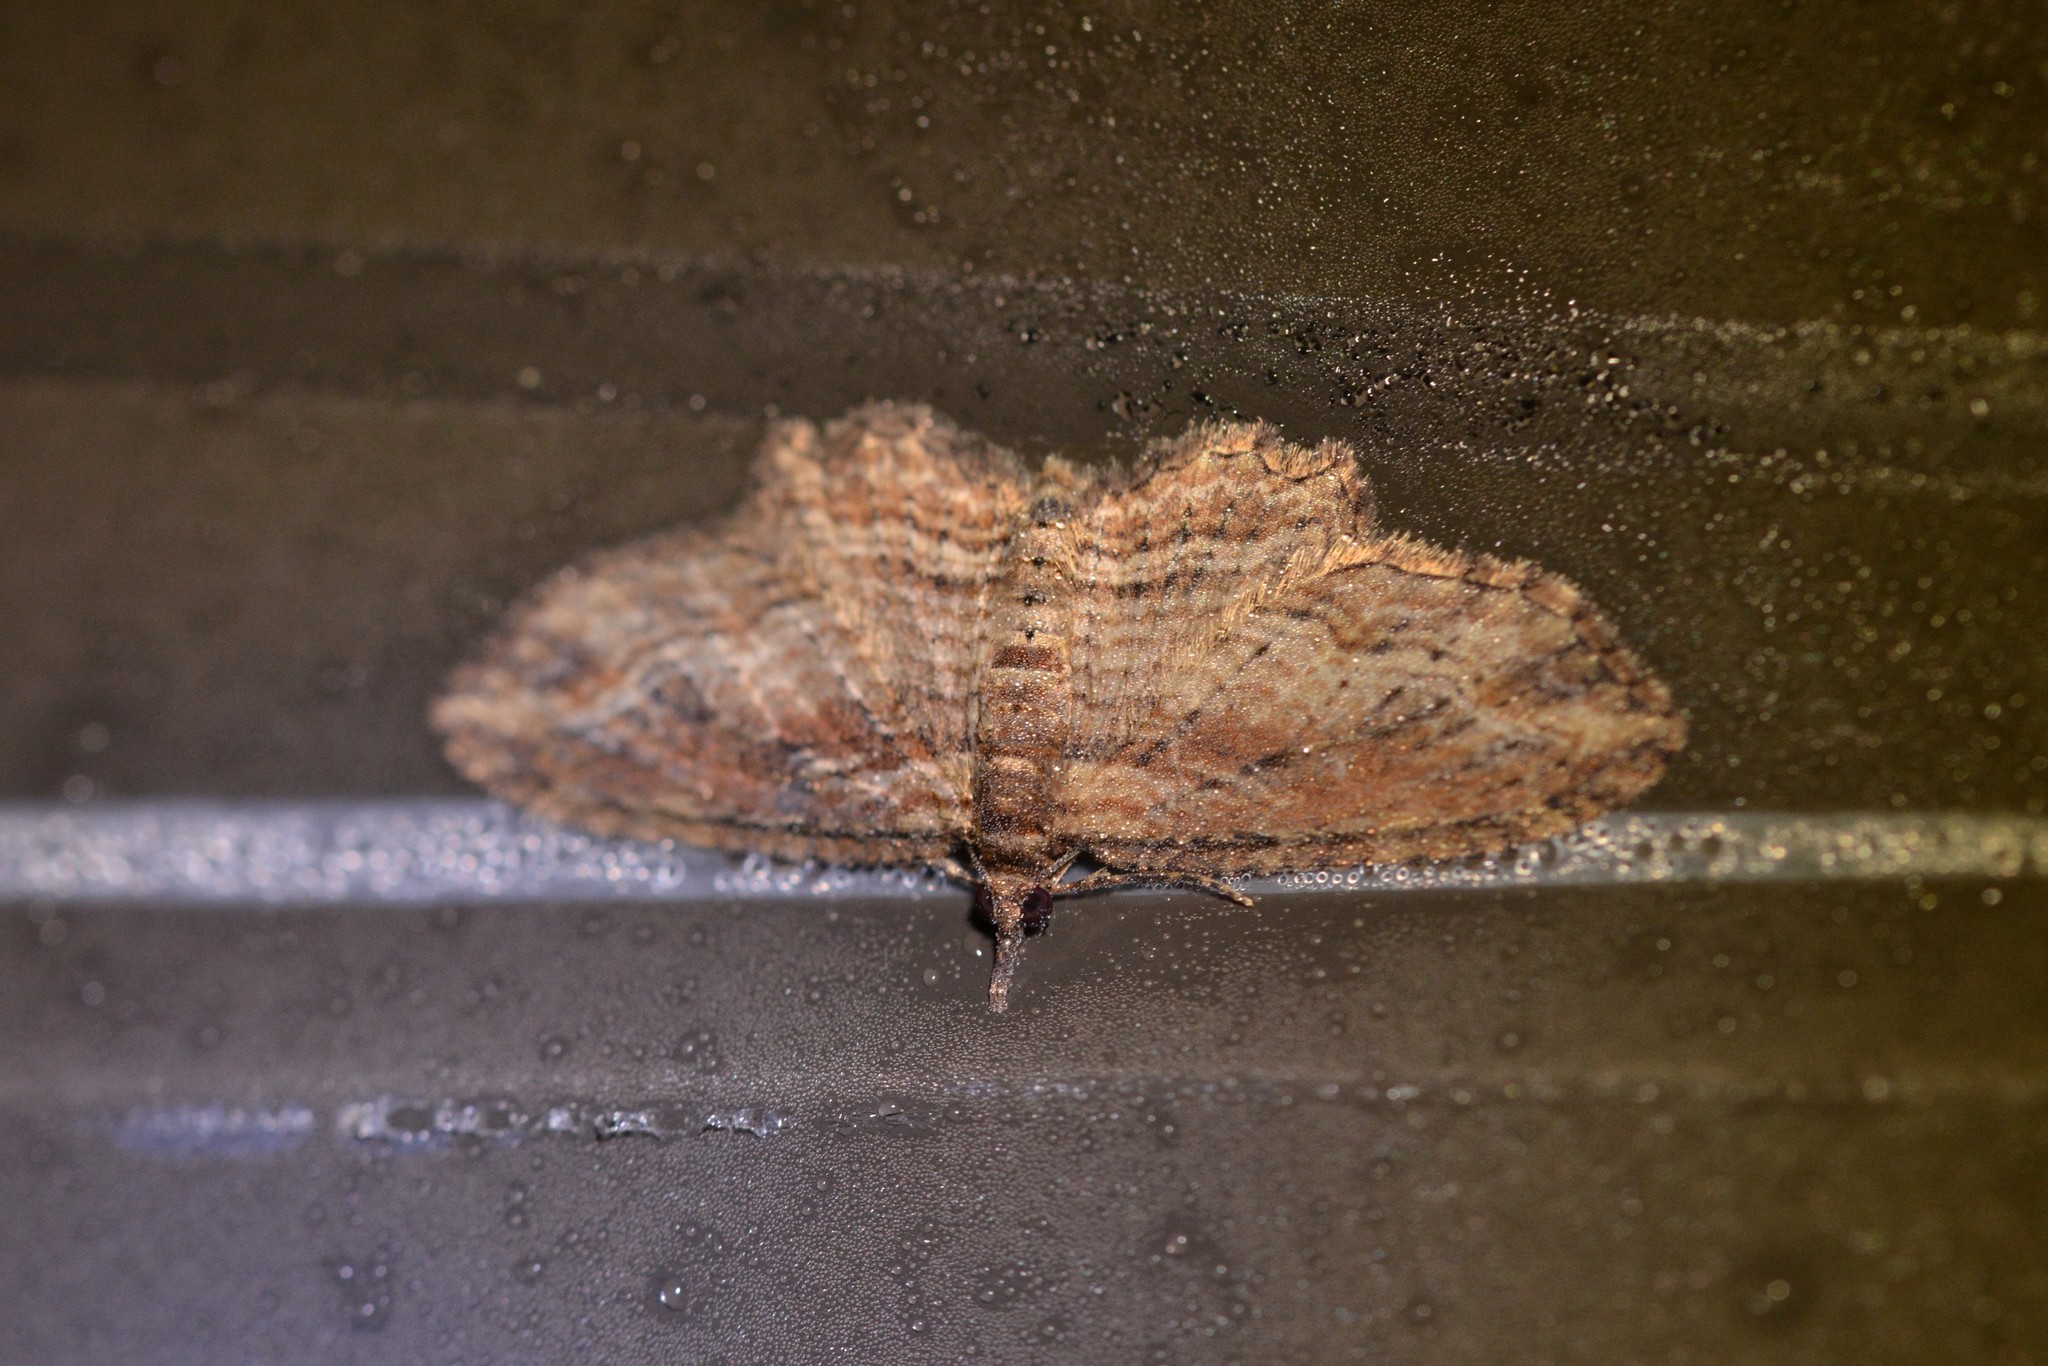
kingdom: Animalia
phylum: Arthropoda
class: Insecta
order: Lepidoptera
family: Geometridae
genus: Chloroclystis
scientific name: Chloroclystis filata
